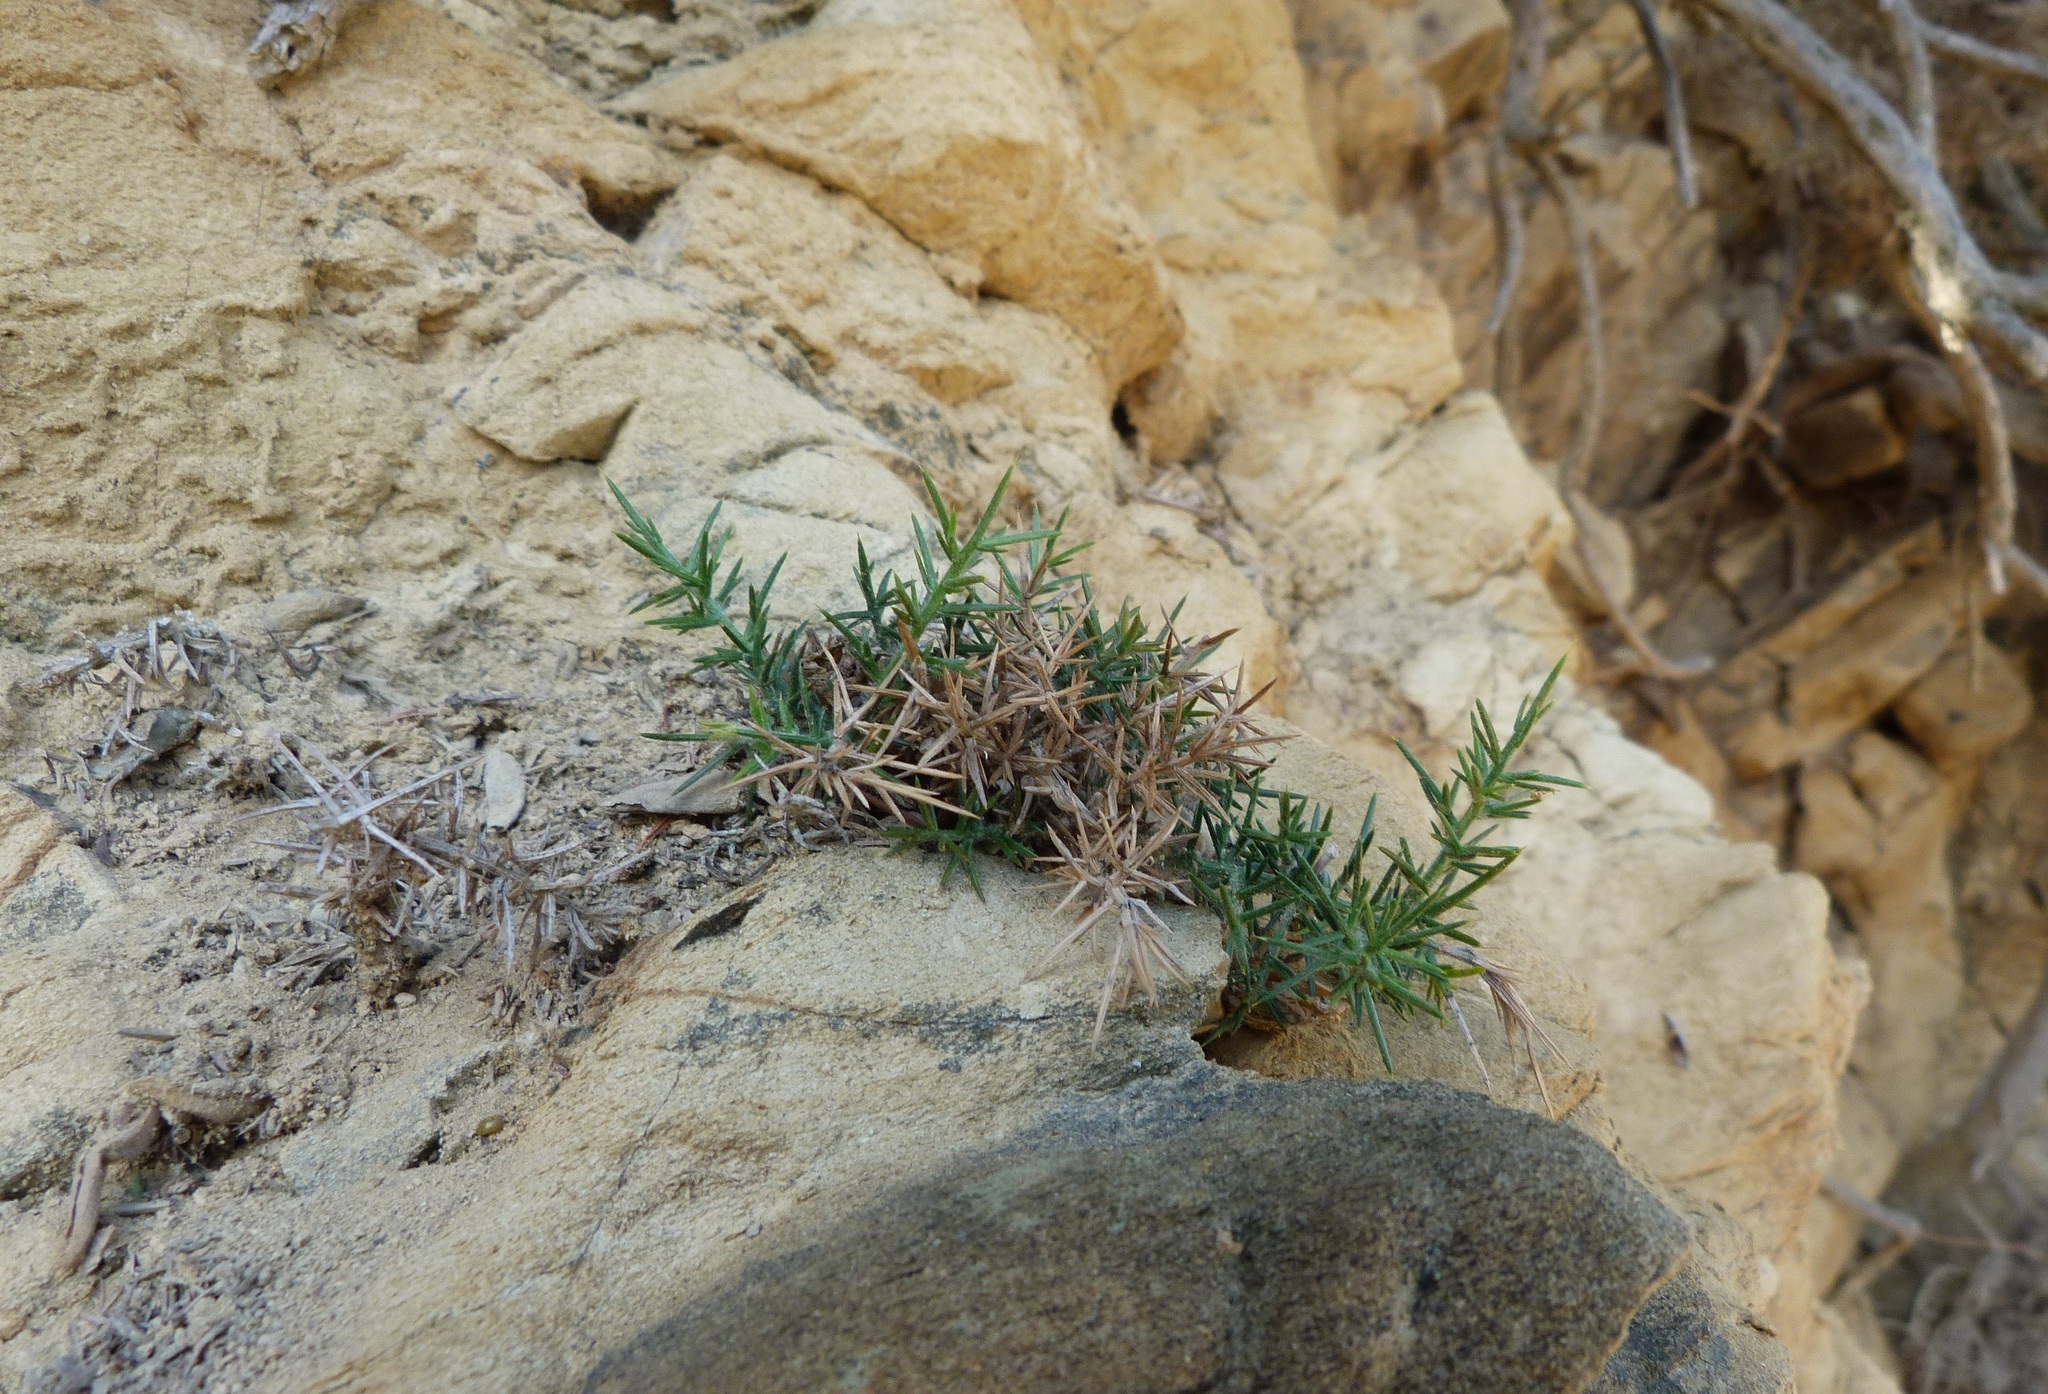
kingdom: Plantae
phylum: Tracheophyta
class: Magnoliopsida
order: Fabales
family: Fabaceae
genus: Ulex
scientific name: Ulex europaeus
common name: Common gorse
